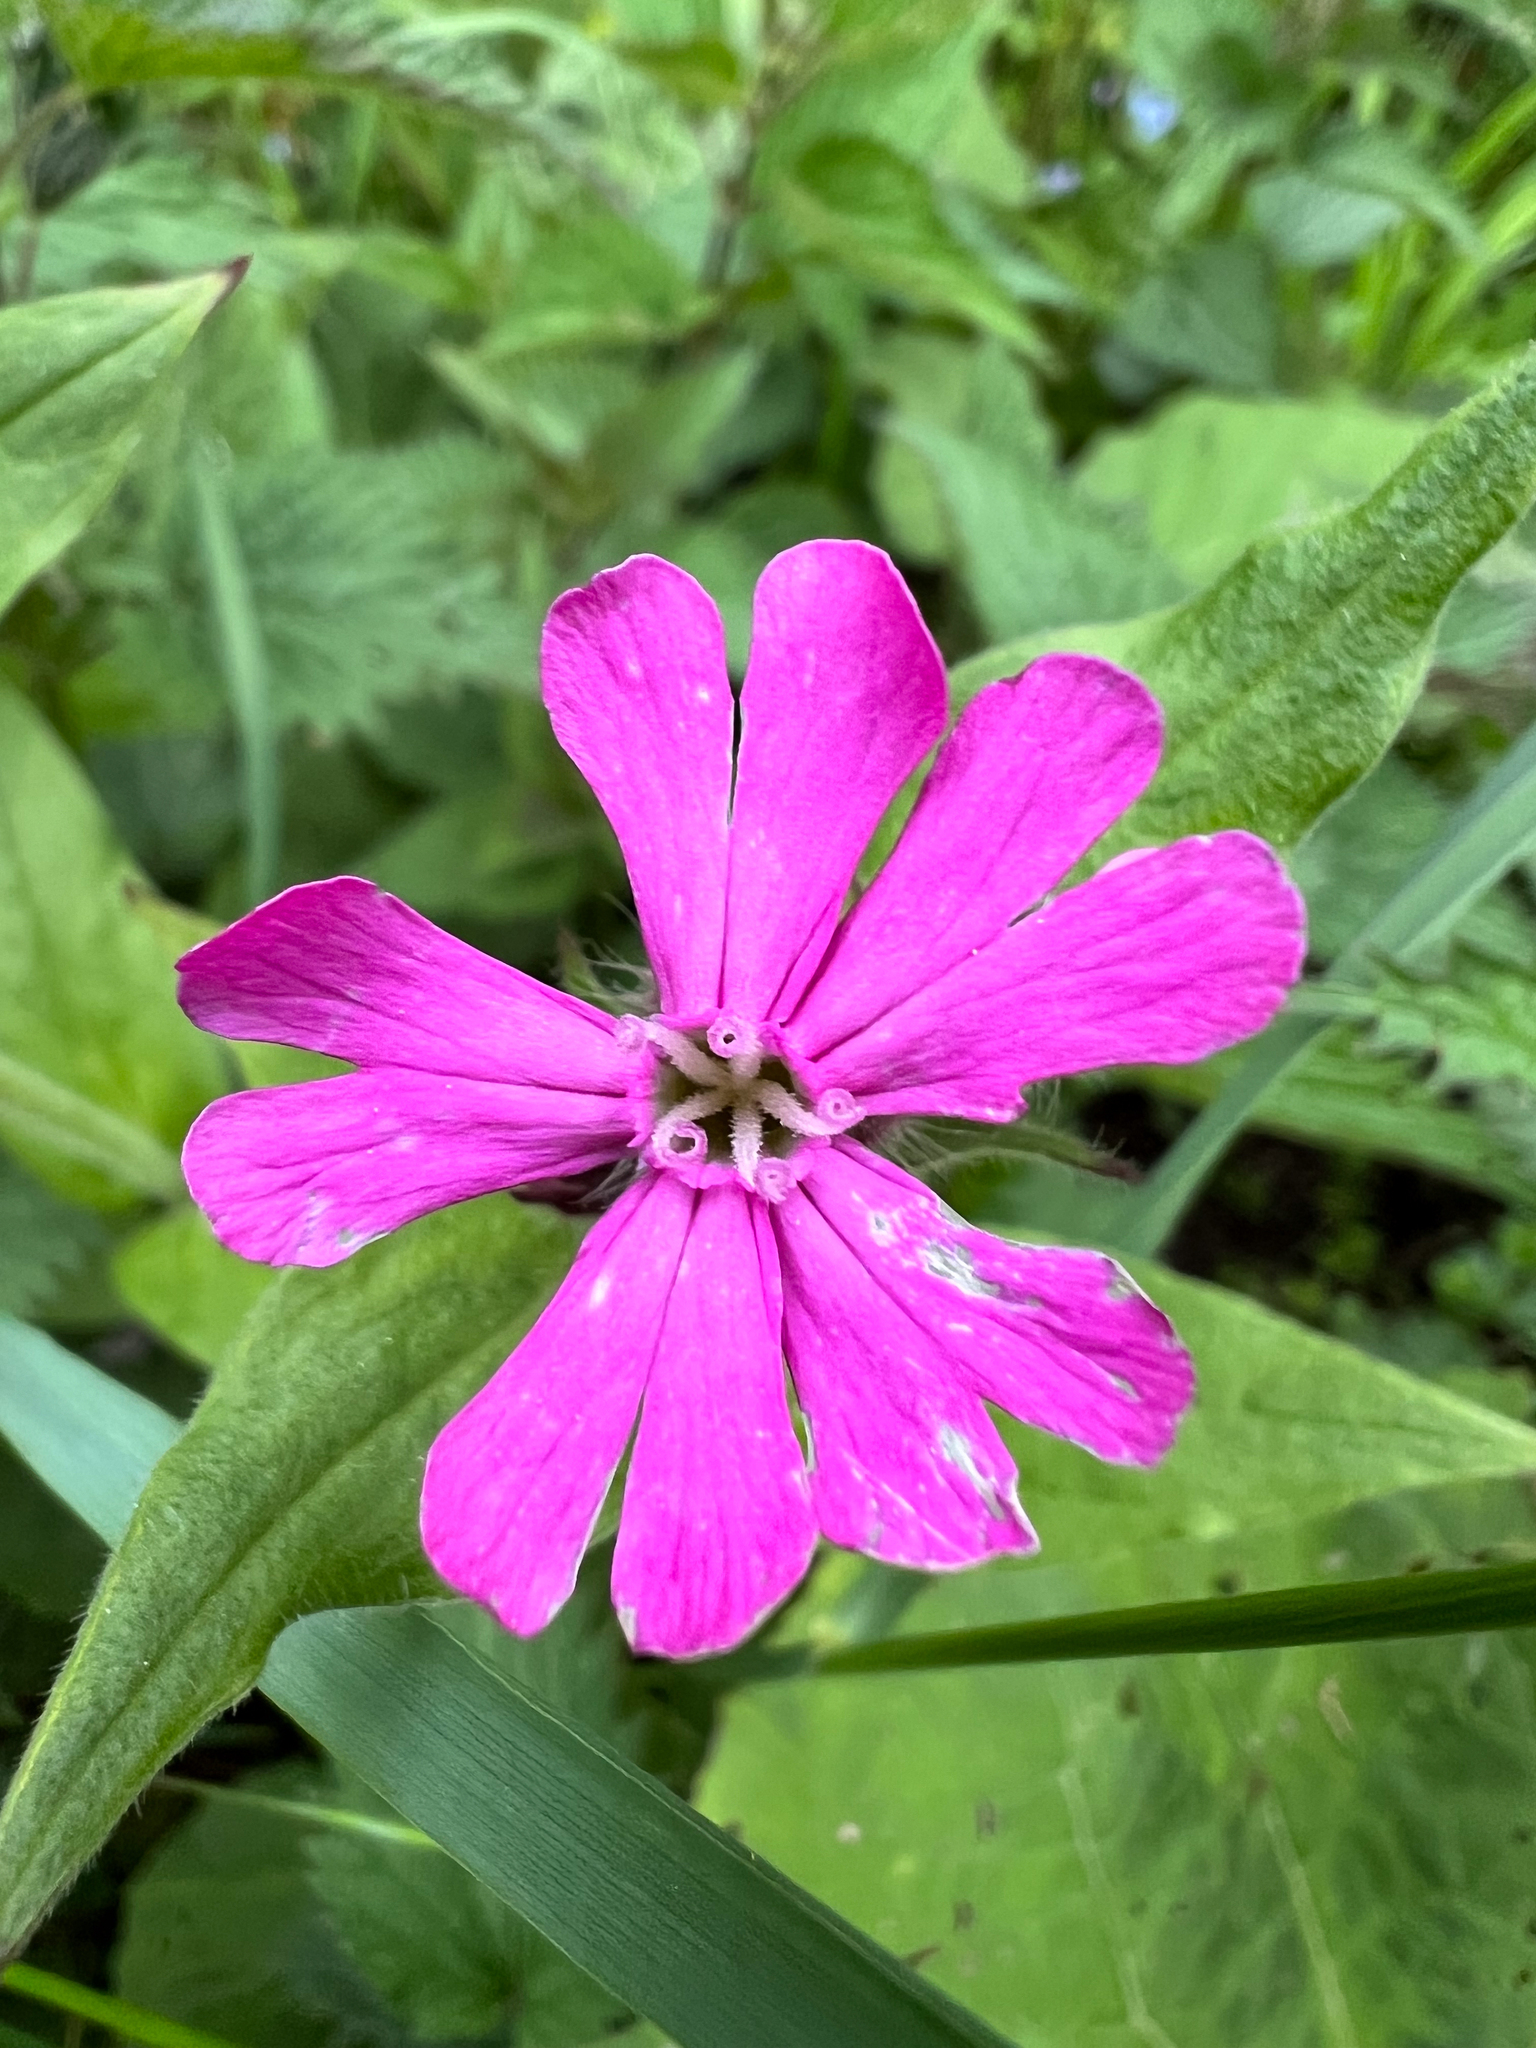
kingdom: Plantae
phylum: Tracheophyta
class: Magnoliopsida
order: Caryophyllales
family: Caryophyllaceae
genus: Silene
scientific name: Silene dioica
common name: Red campion
